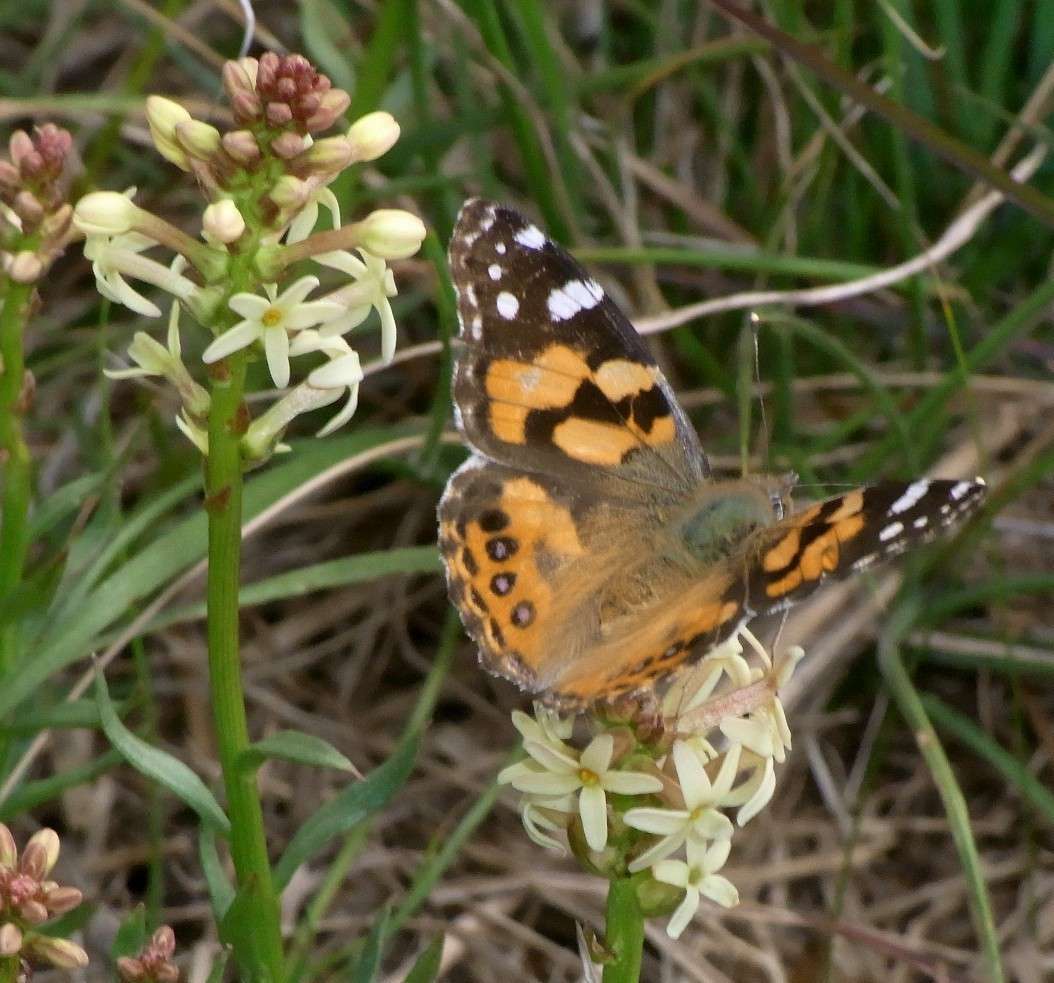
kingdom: Plantae
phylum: Tracheophyta
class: Magnoliopsida
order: Celastrales
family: Celastraceae
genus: Stackhousia
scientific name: Stackhousia subterranea
